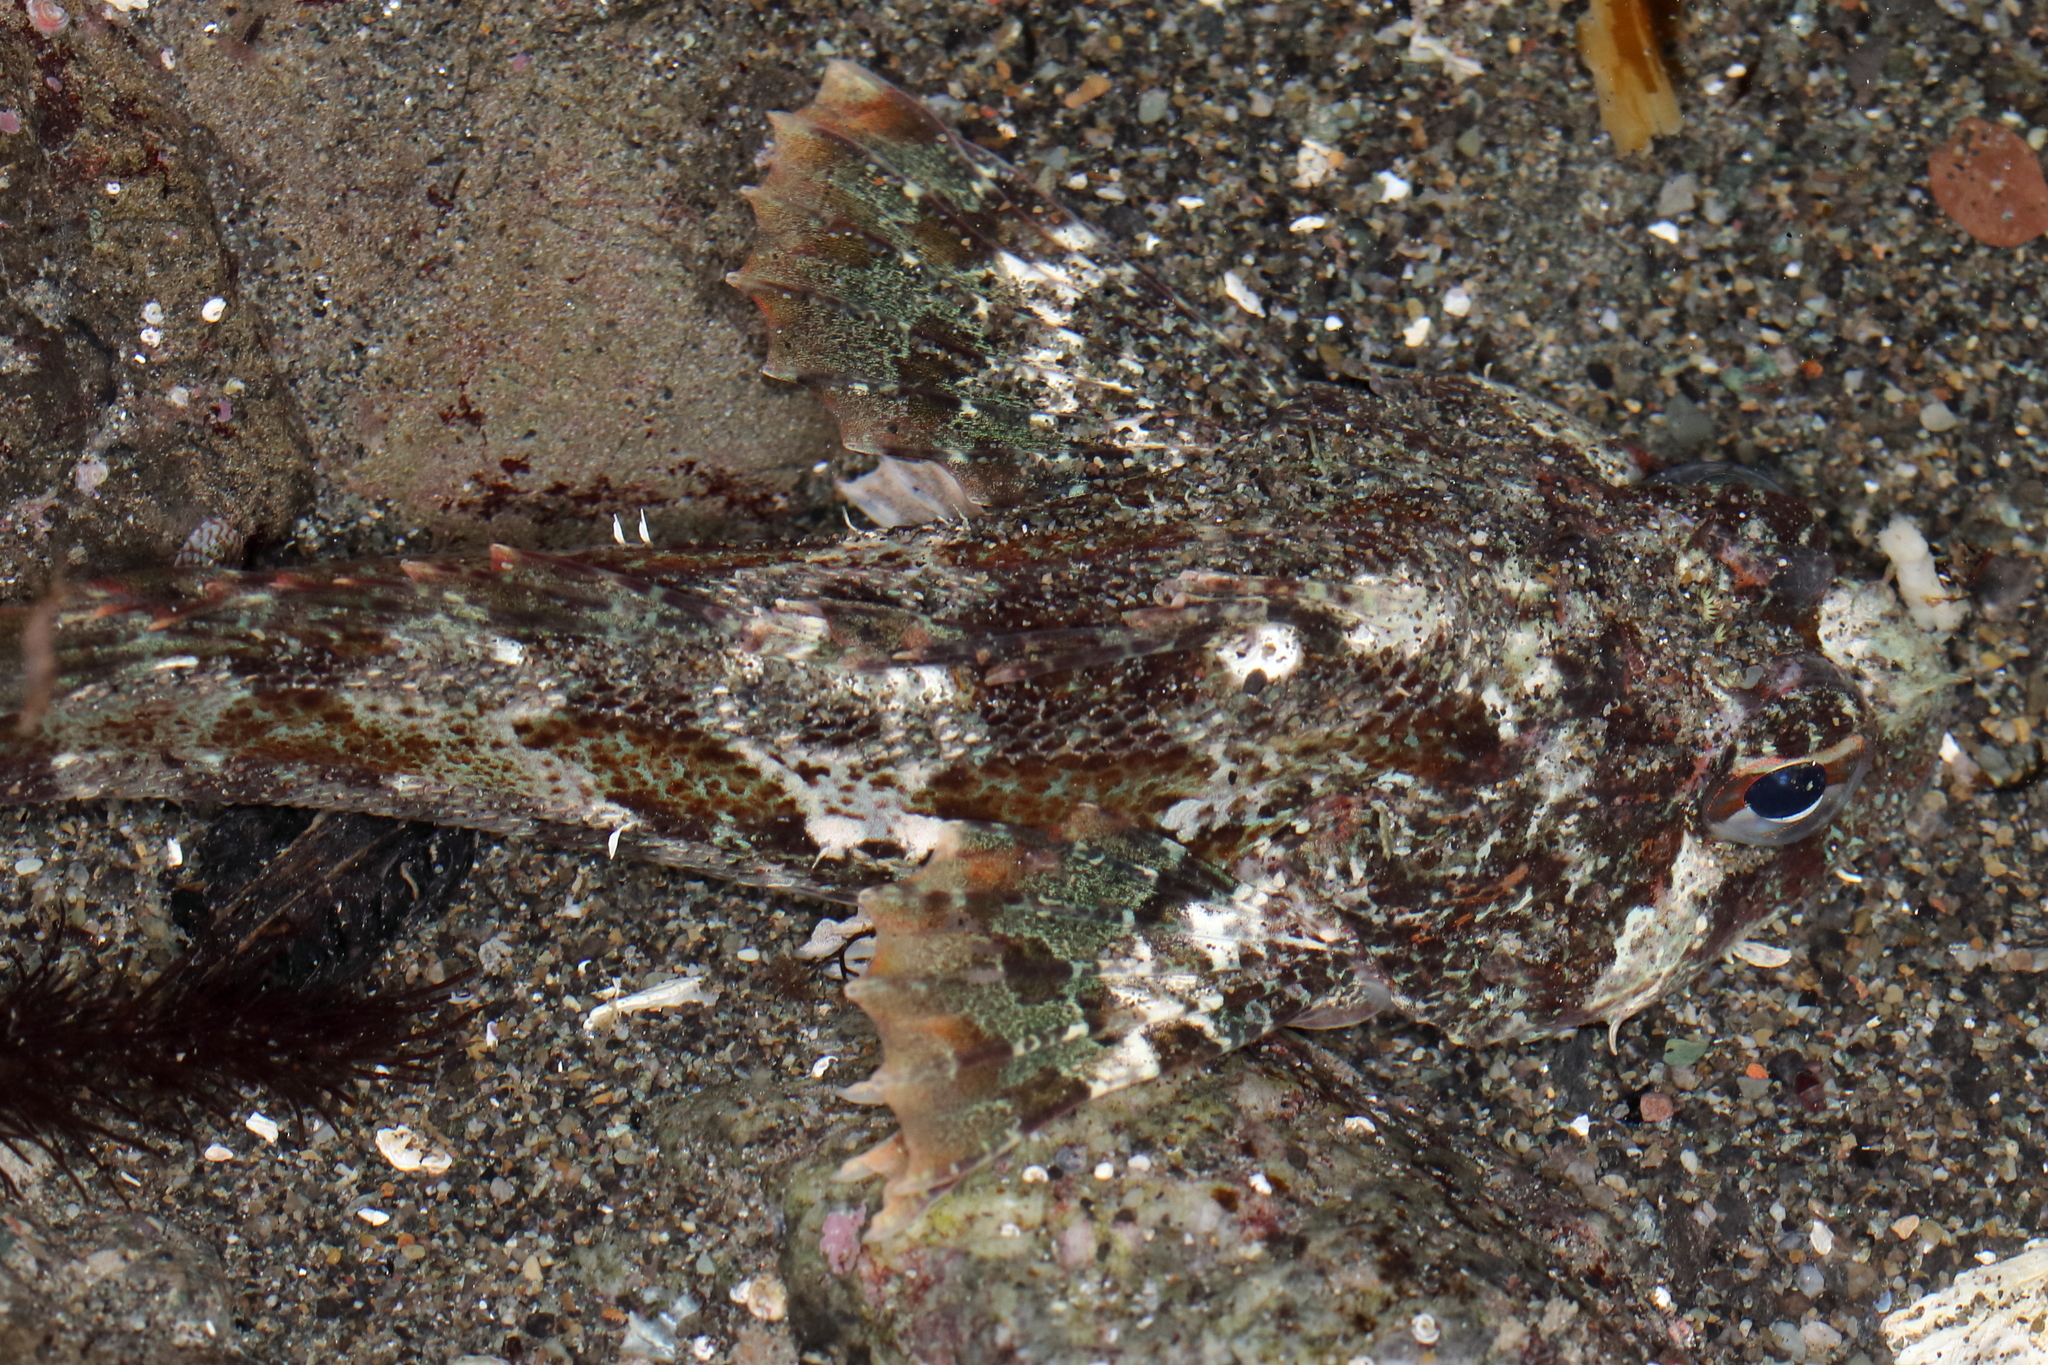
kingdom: Animalia
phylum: Chordata
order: Scorpaeniformes
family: Cottidae
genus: Hemilepidotus
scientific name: Hemilepidotus hemilepidotus
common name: Red irish lord
